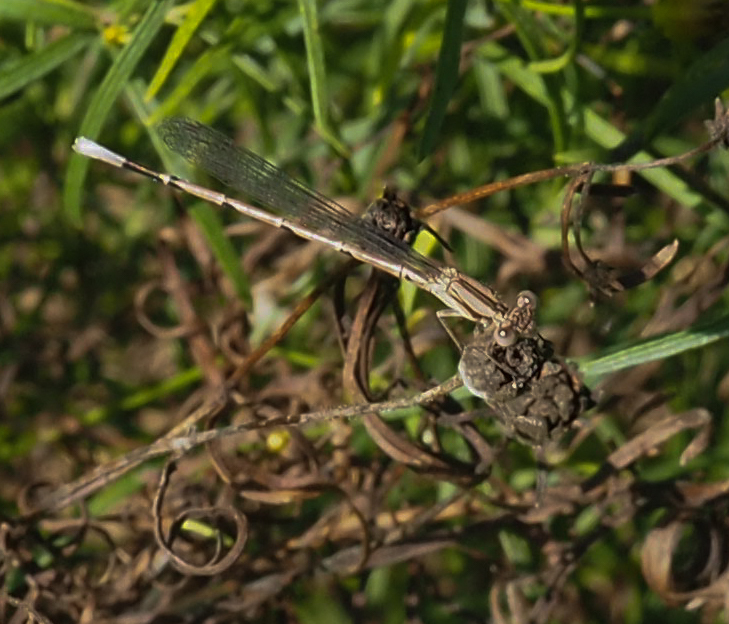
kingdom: Animalia
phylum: Arthropoda
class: Insecta
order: Odonata
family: Coenagrionidae
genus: Argia
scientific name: Argia fumipennis
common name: Variable dancer
